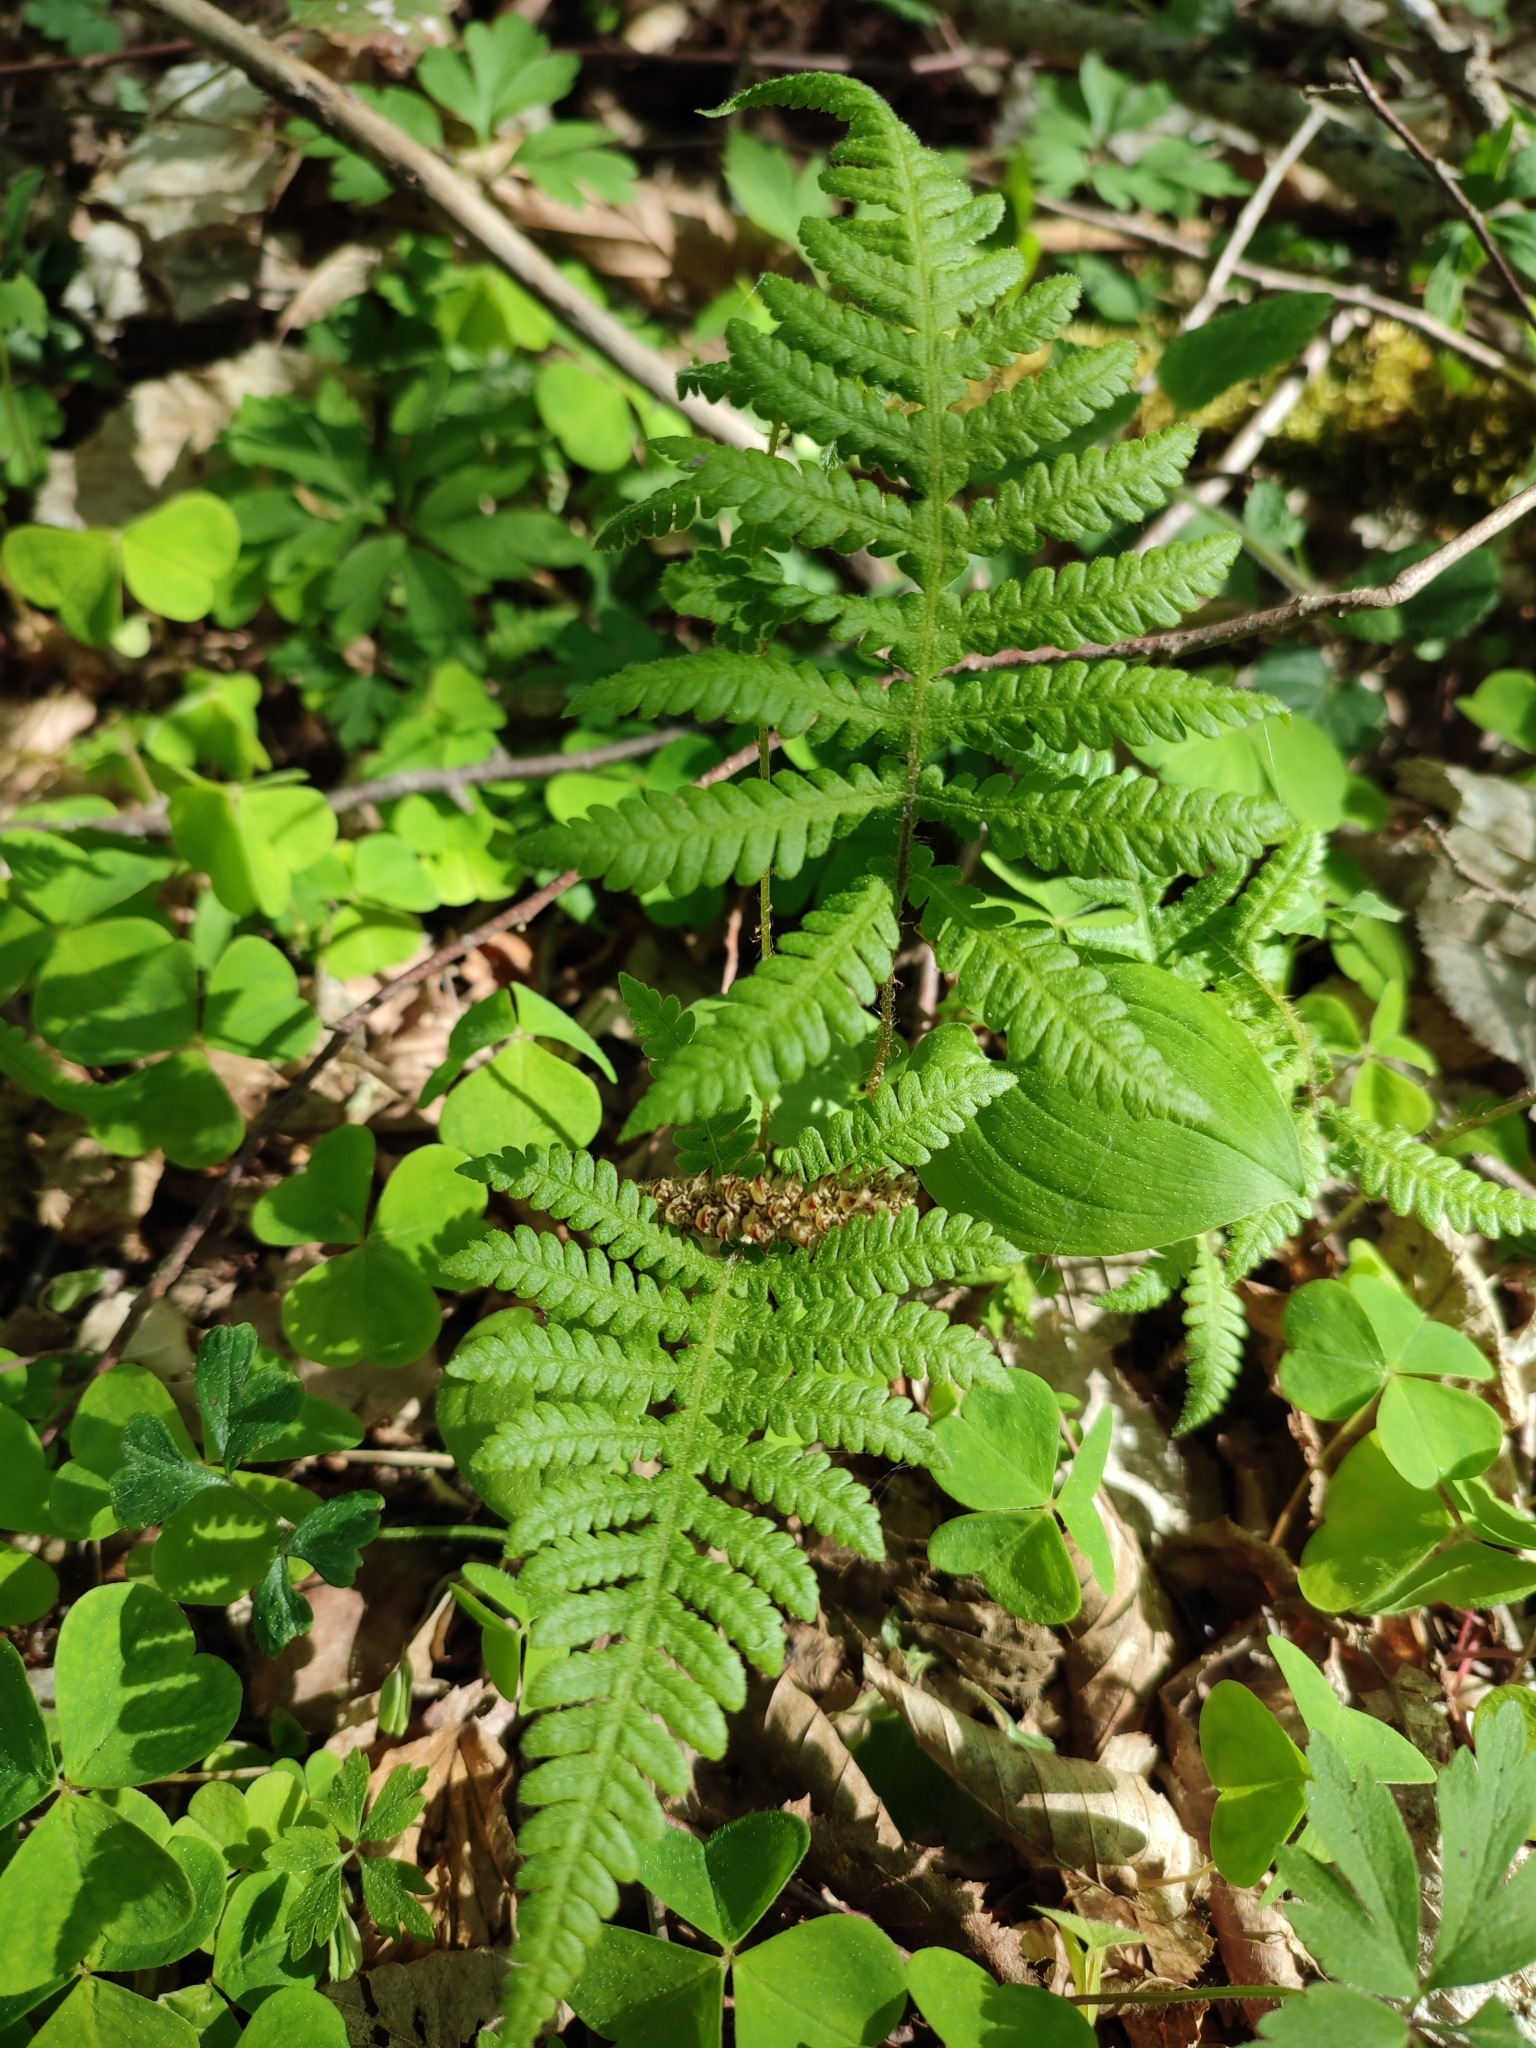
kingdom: Plantae
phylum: Tracheophyta
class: Polypodiopsida
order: Polypodiales
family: Thelypteridaceae
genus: Phegopteris
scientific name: Phegopteris connectilis
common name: Beech fern
